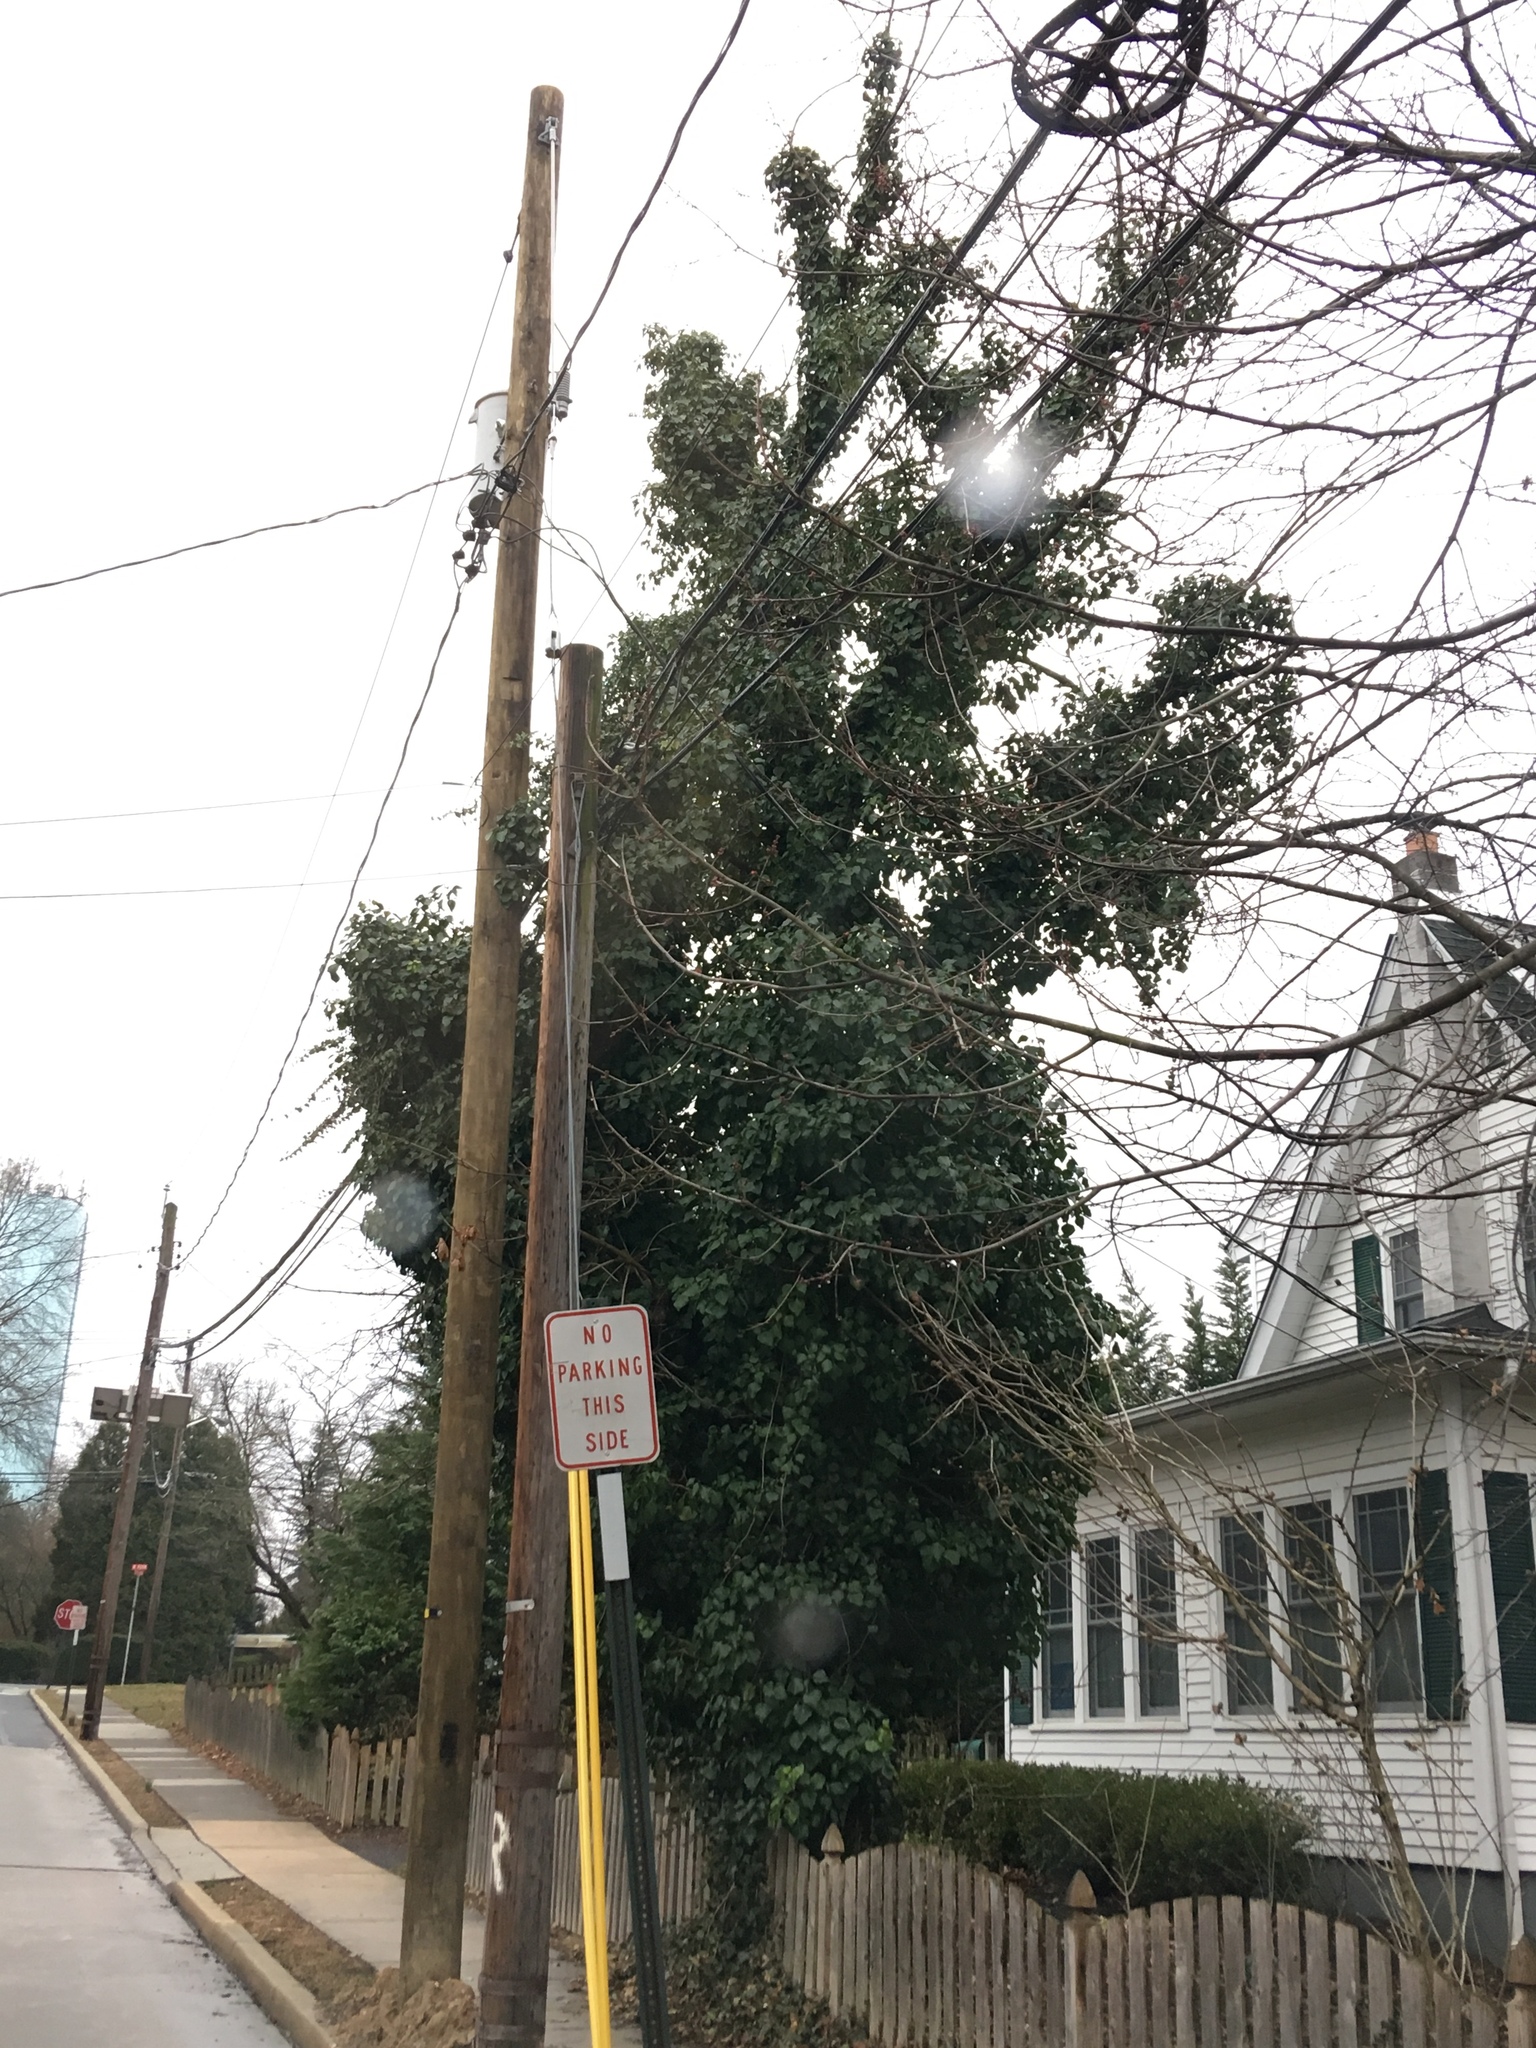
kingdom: Plantae
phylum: Tracheophyta
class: Magnoliopsida
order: Apiales
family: Araliaceae
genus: Hedera
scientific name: Hedera helix
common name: Ivy
